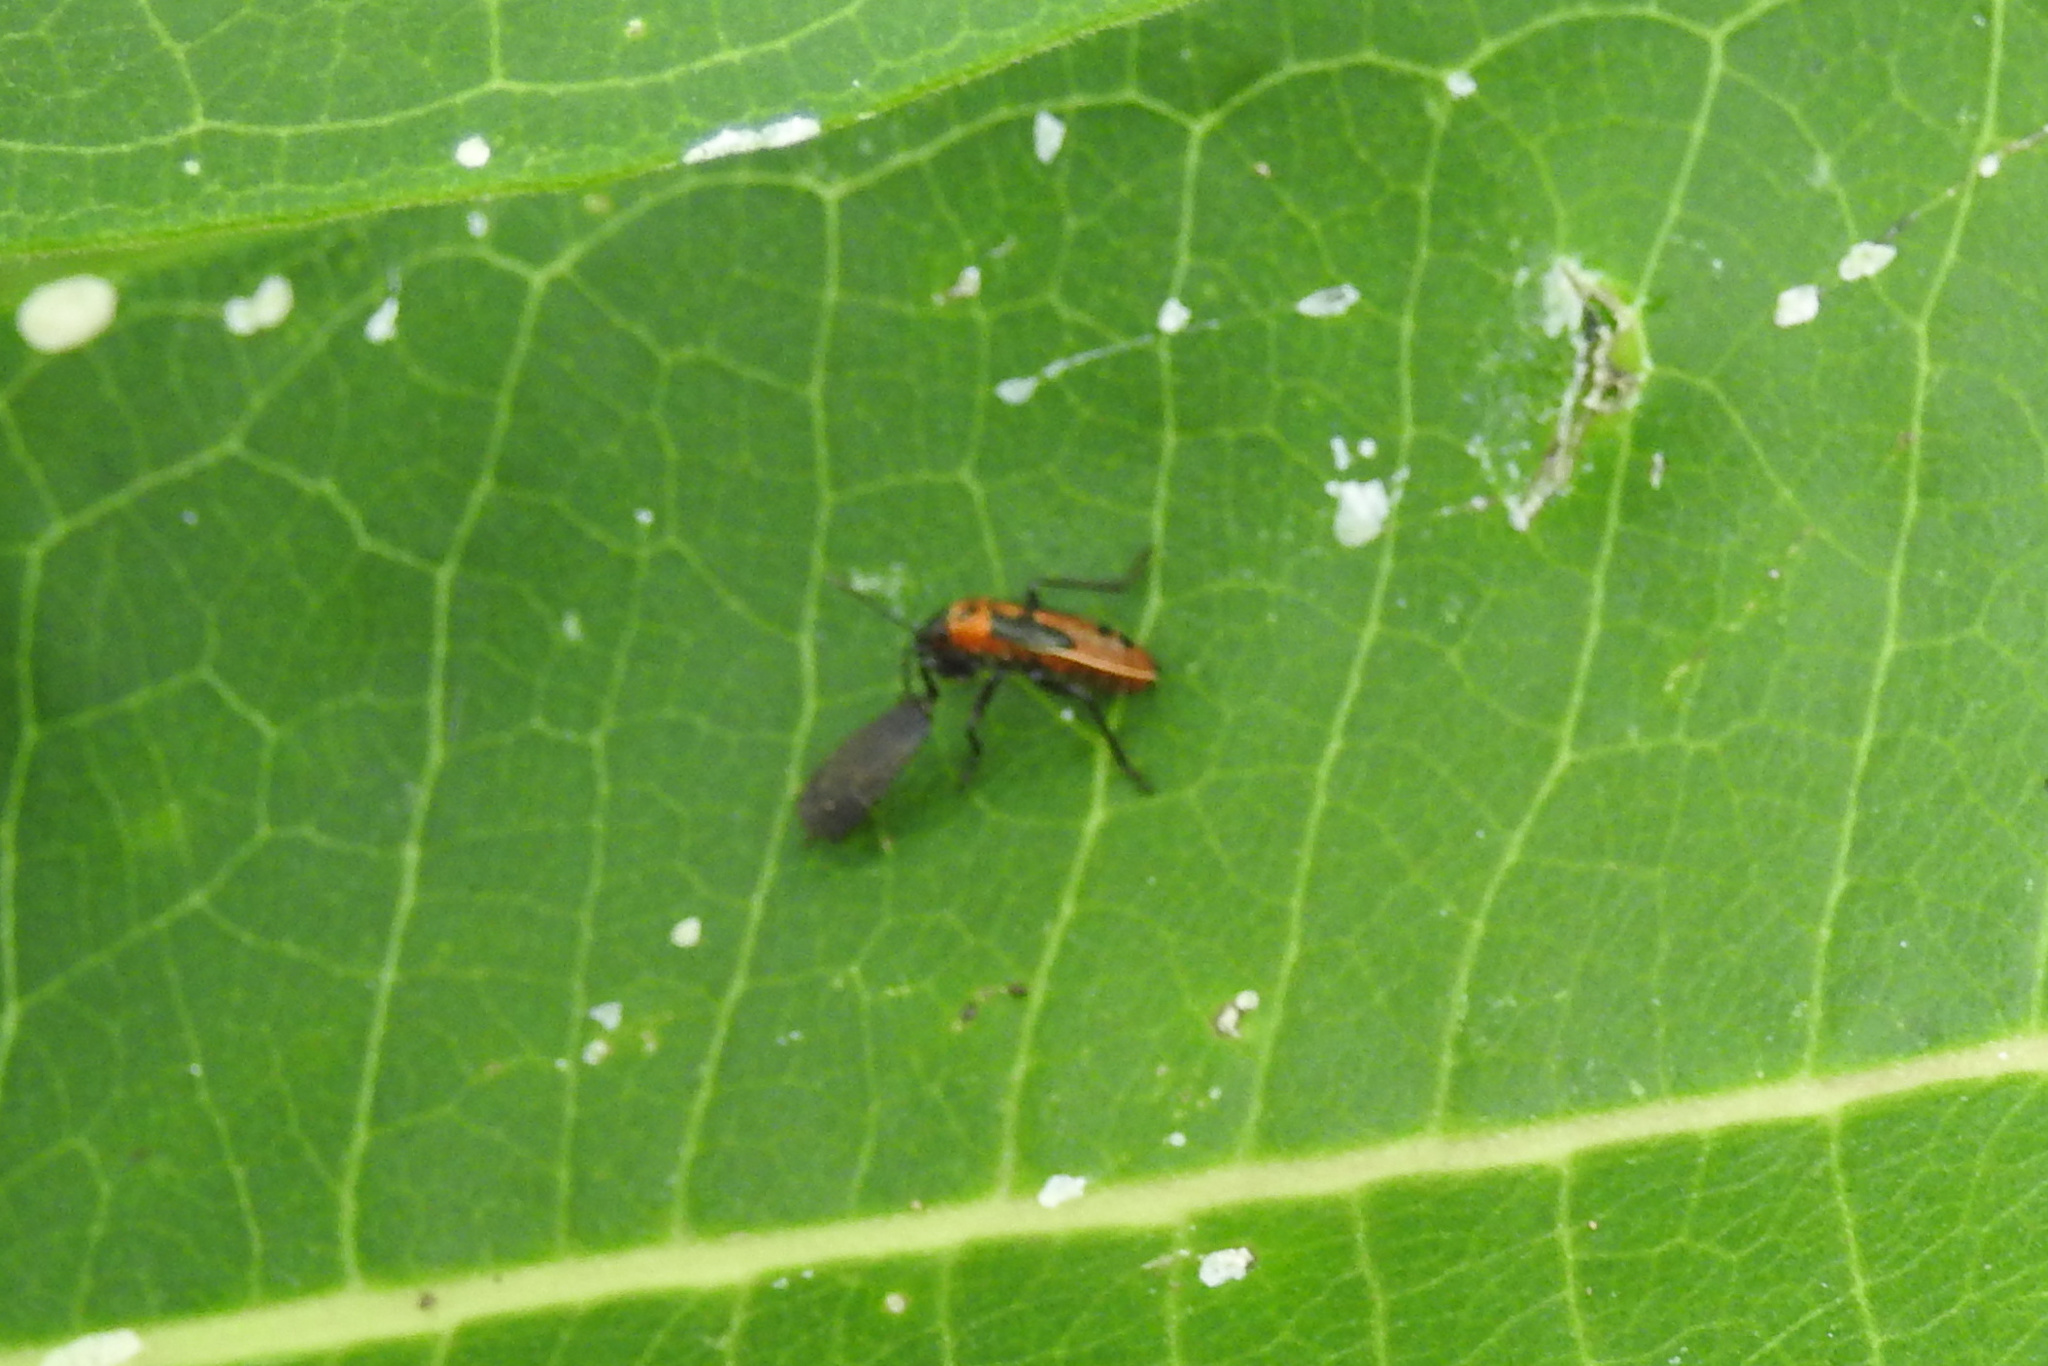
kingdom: Animalia
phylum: Arthropoda
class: Insecta
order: Hemiptera
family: Lygaeidae
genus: Lygaeus
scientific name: Lygaeus turcicus
